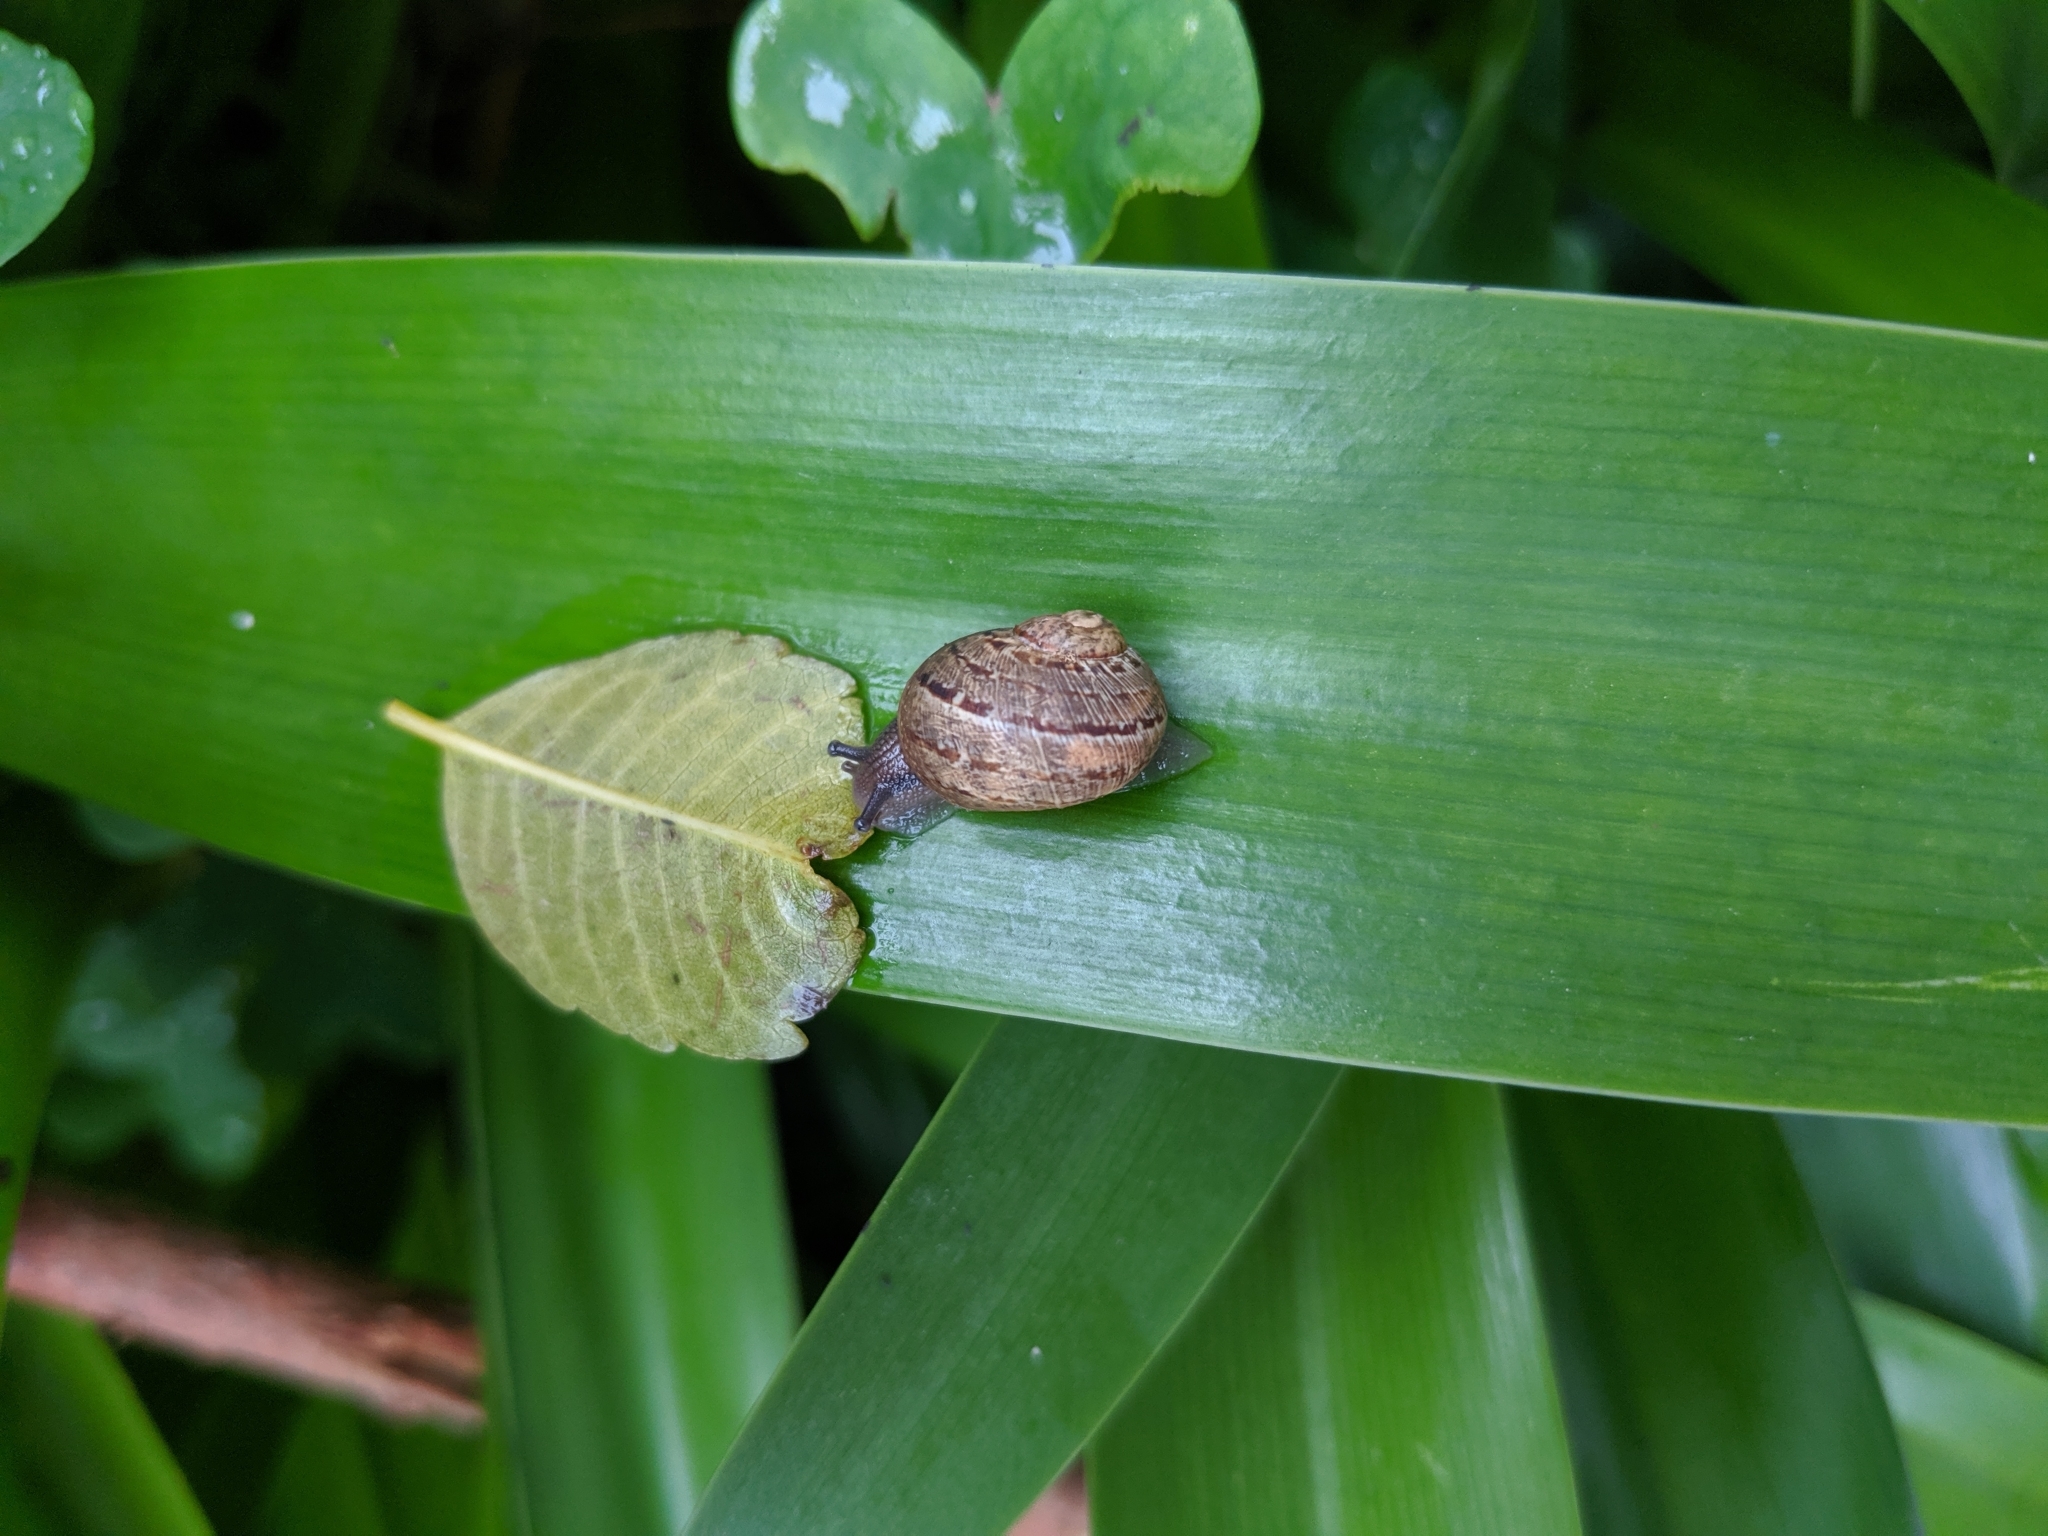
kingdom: Animalia
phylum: Mollusca
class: Gastropoda
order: Stylommatophora
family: Helicidae
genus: Cornu
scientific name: Cornu aspersum
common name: Brown garden snail
